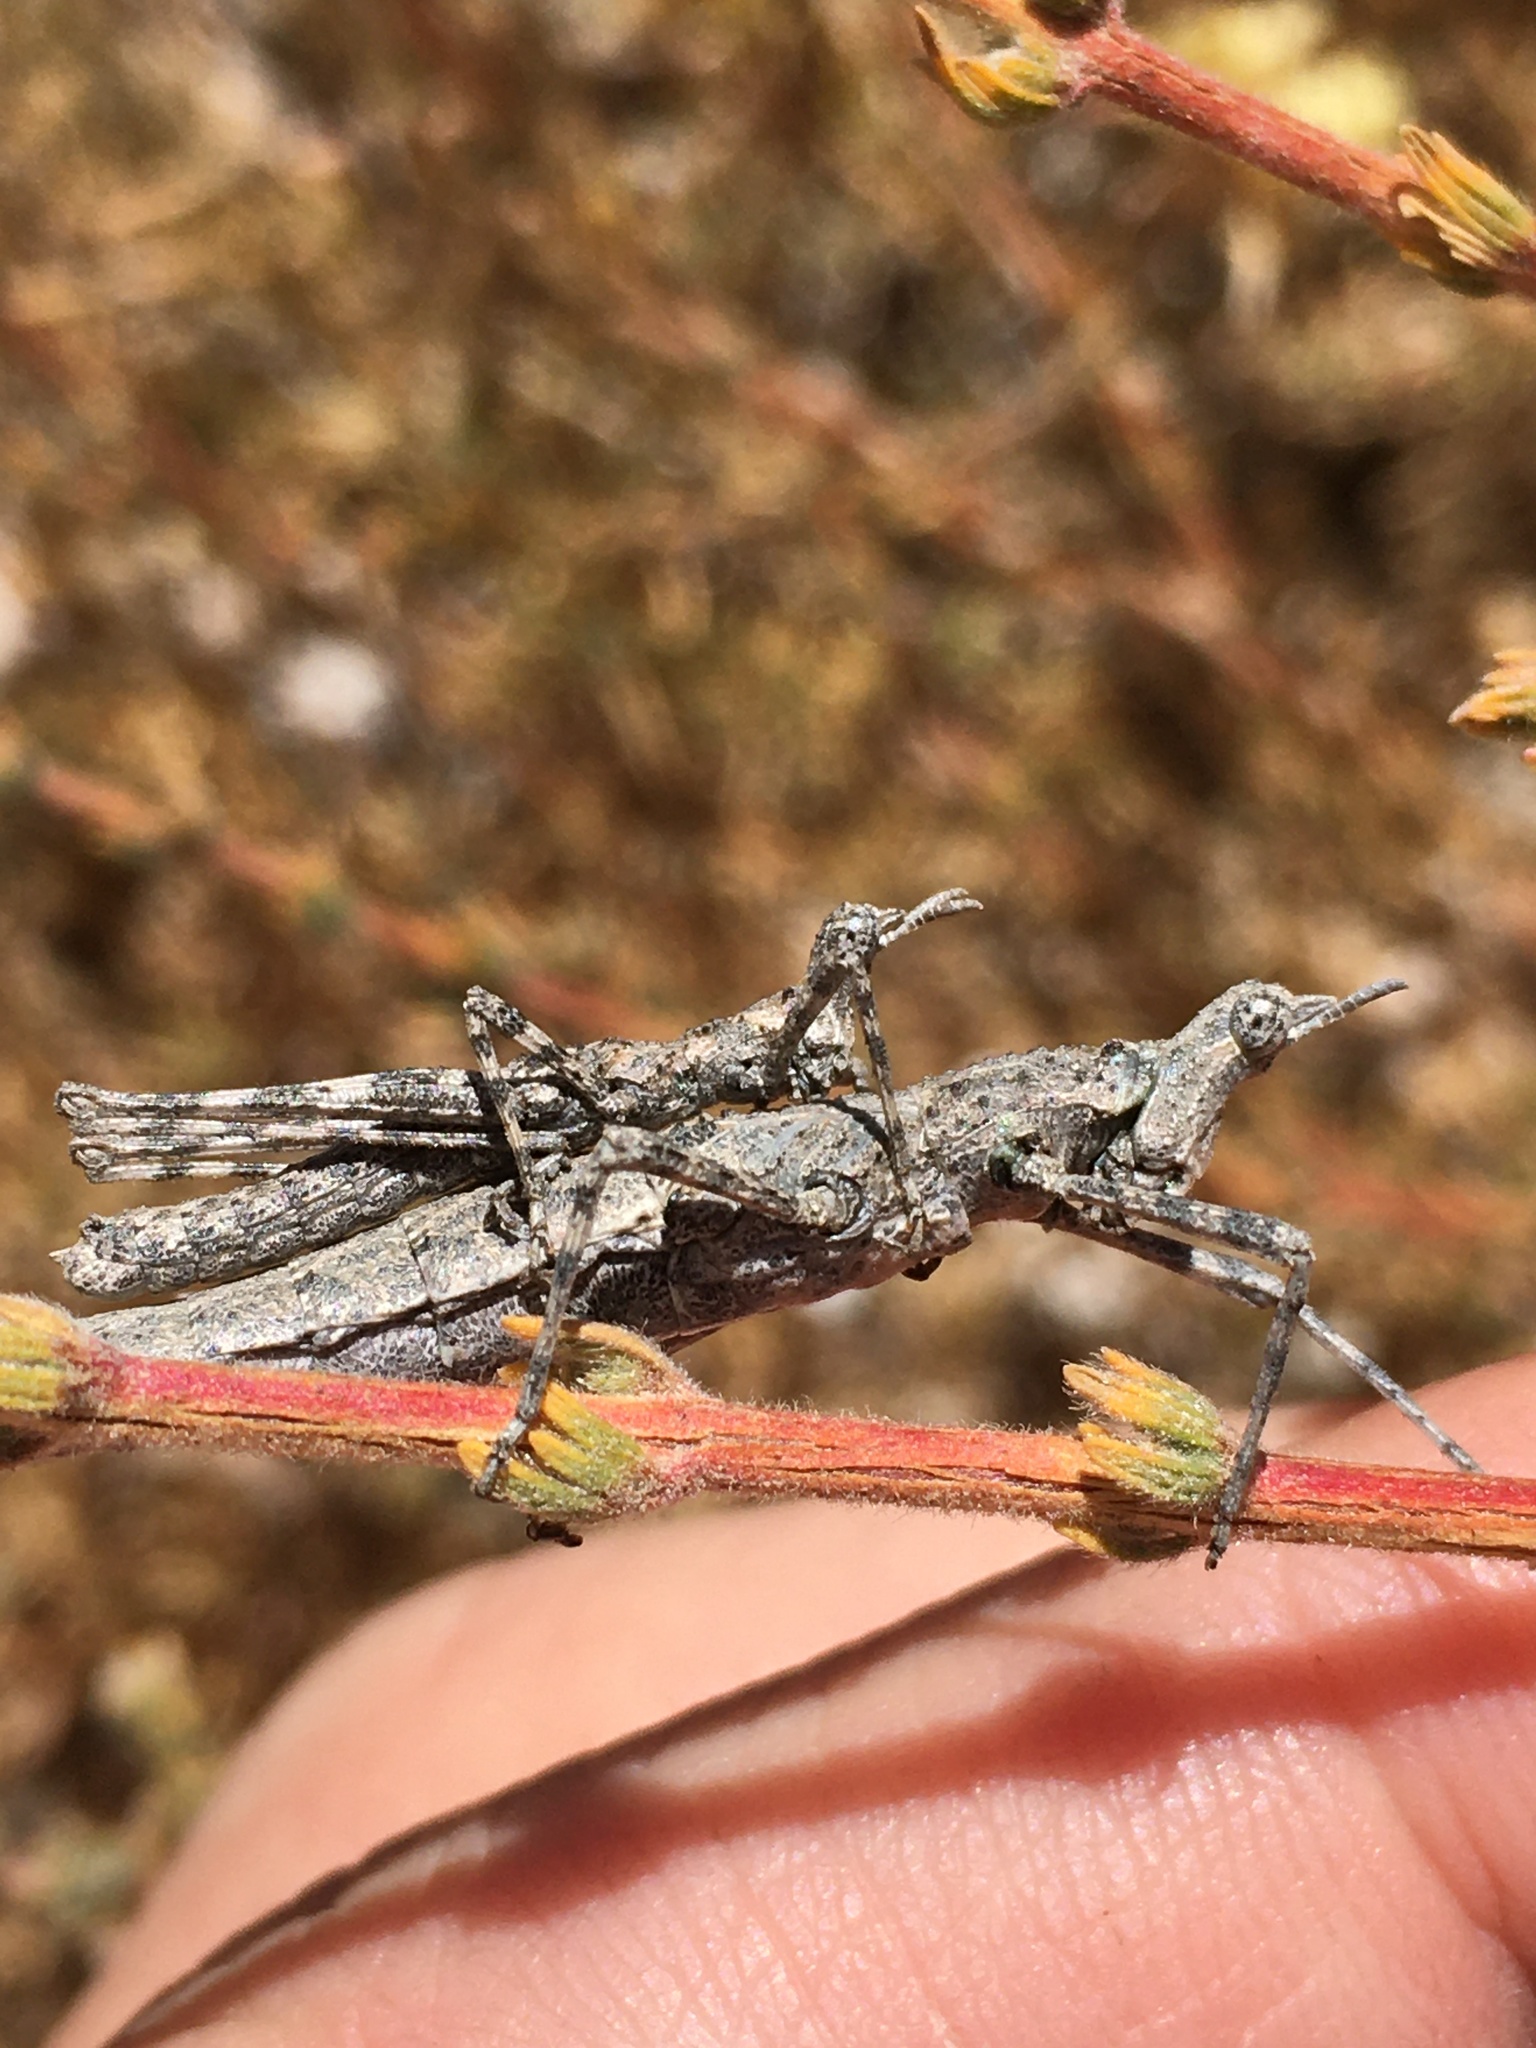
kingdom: Animalia
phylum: Arthropoda
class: Insecta
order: Orthoptera
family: Proscopiidae
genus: Astromoides
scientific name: Astromoides verrucosum
